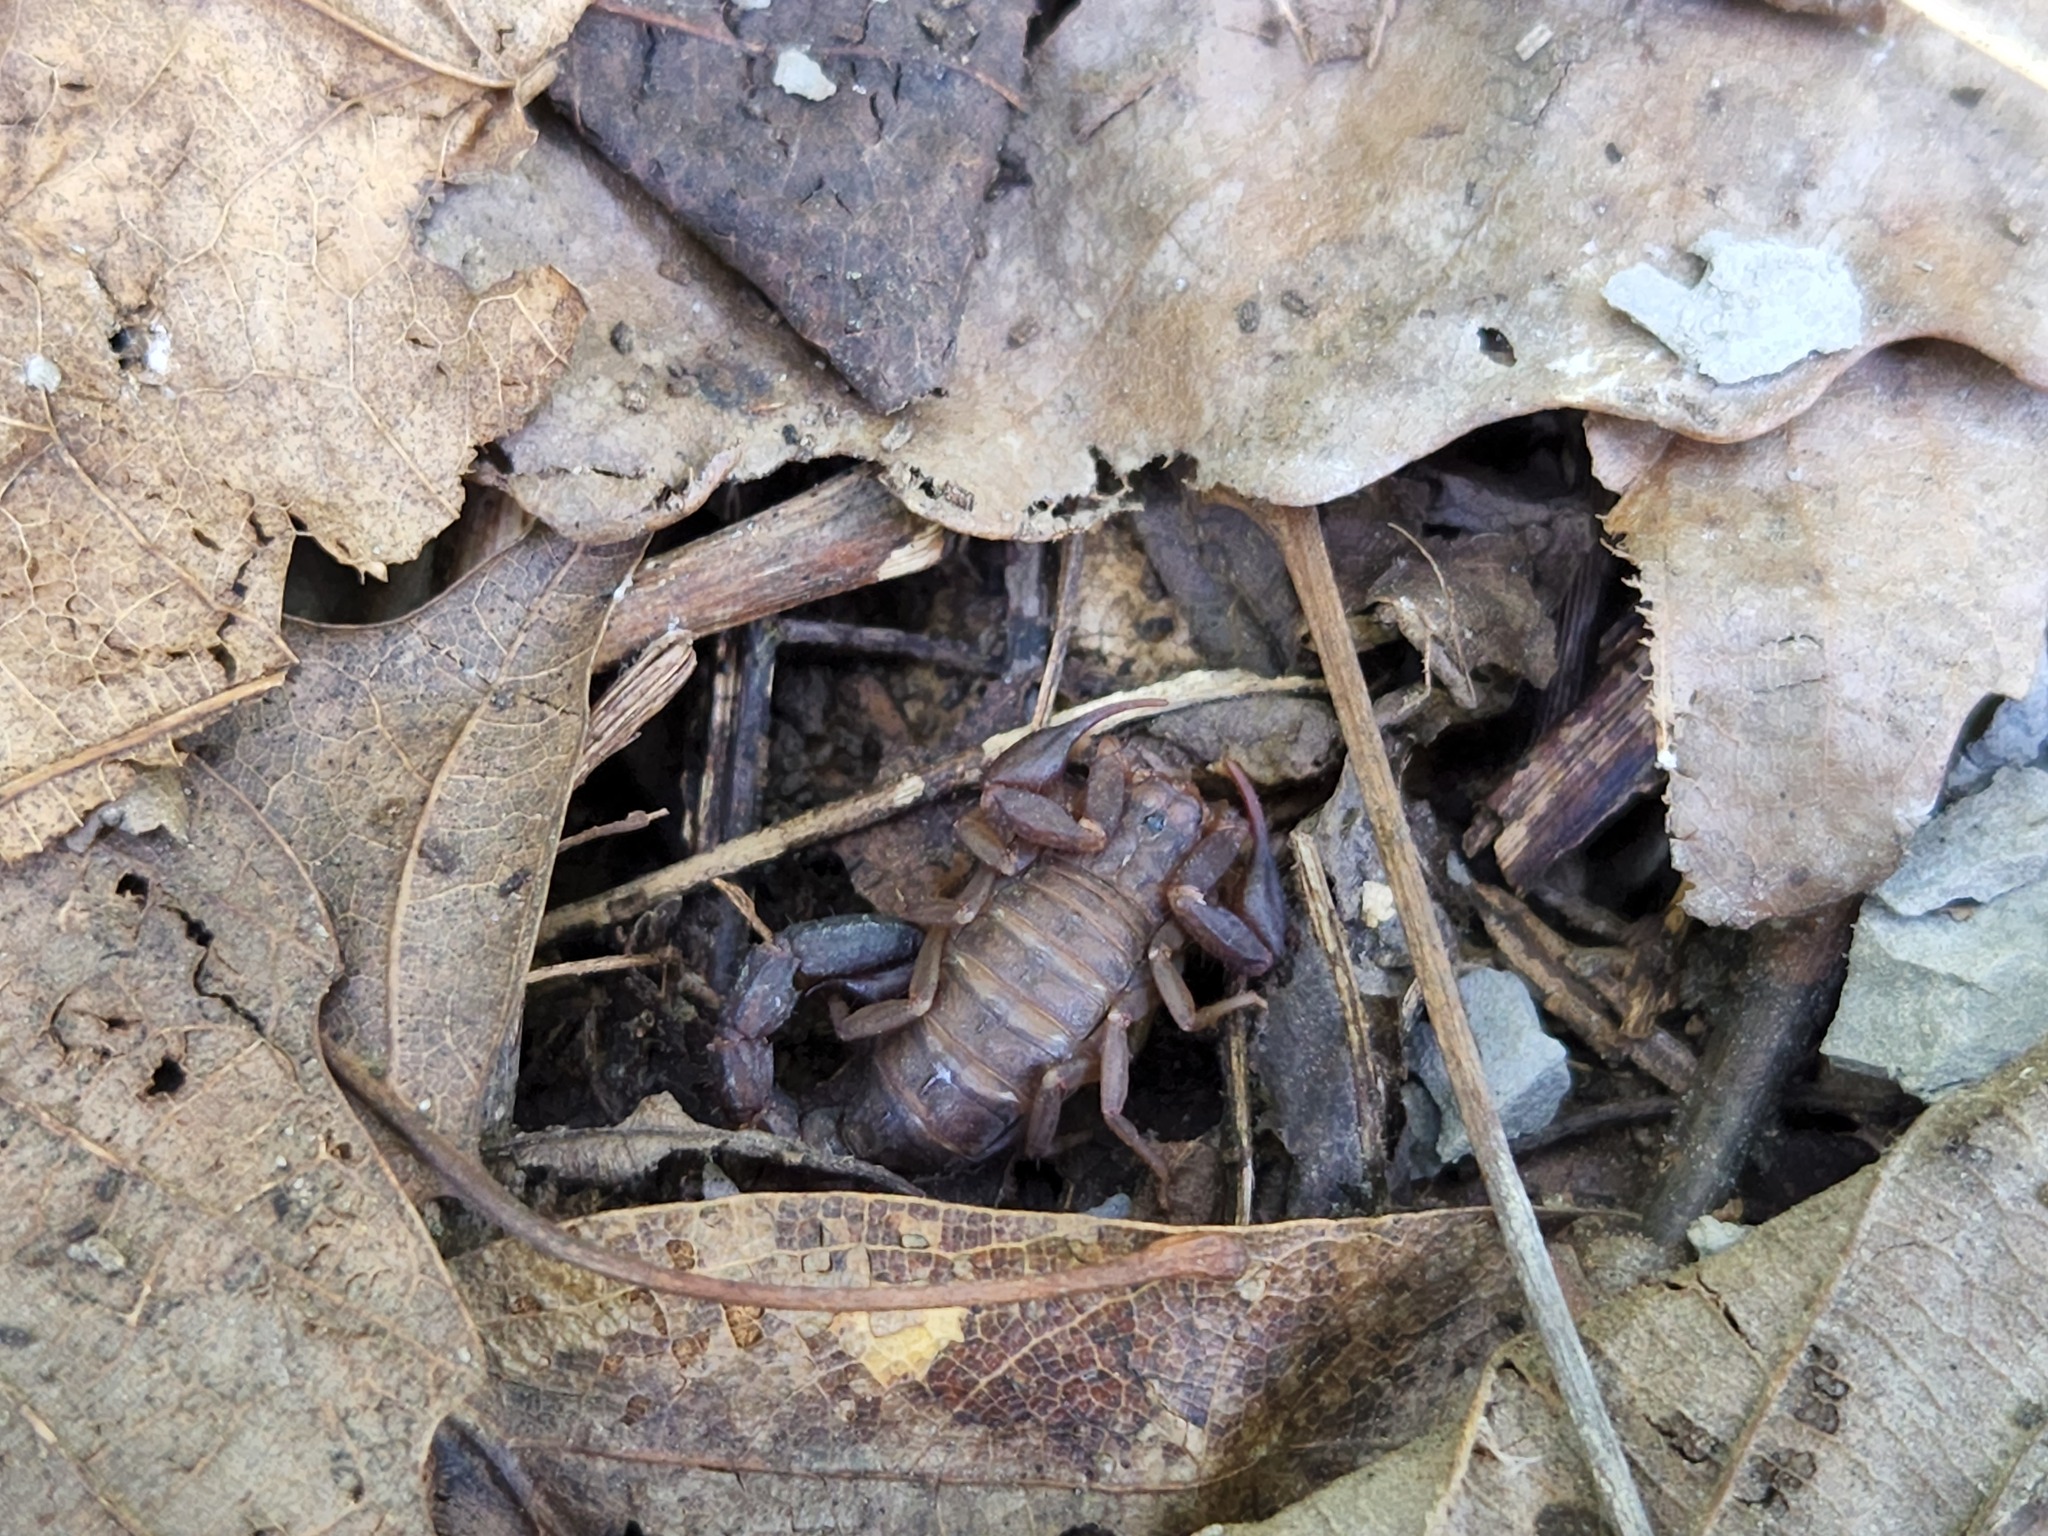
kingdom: Animalia
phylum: Arthropoda
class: Arachnida
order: Scorpiones
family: Vaejovidae
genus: Vaejovis
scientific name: Vaejovis carolinianus
